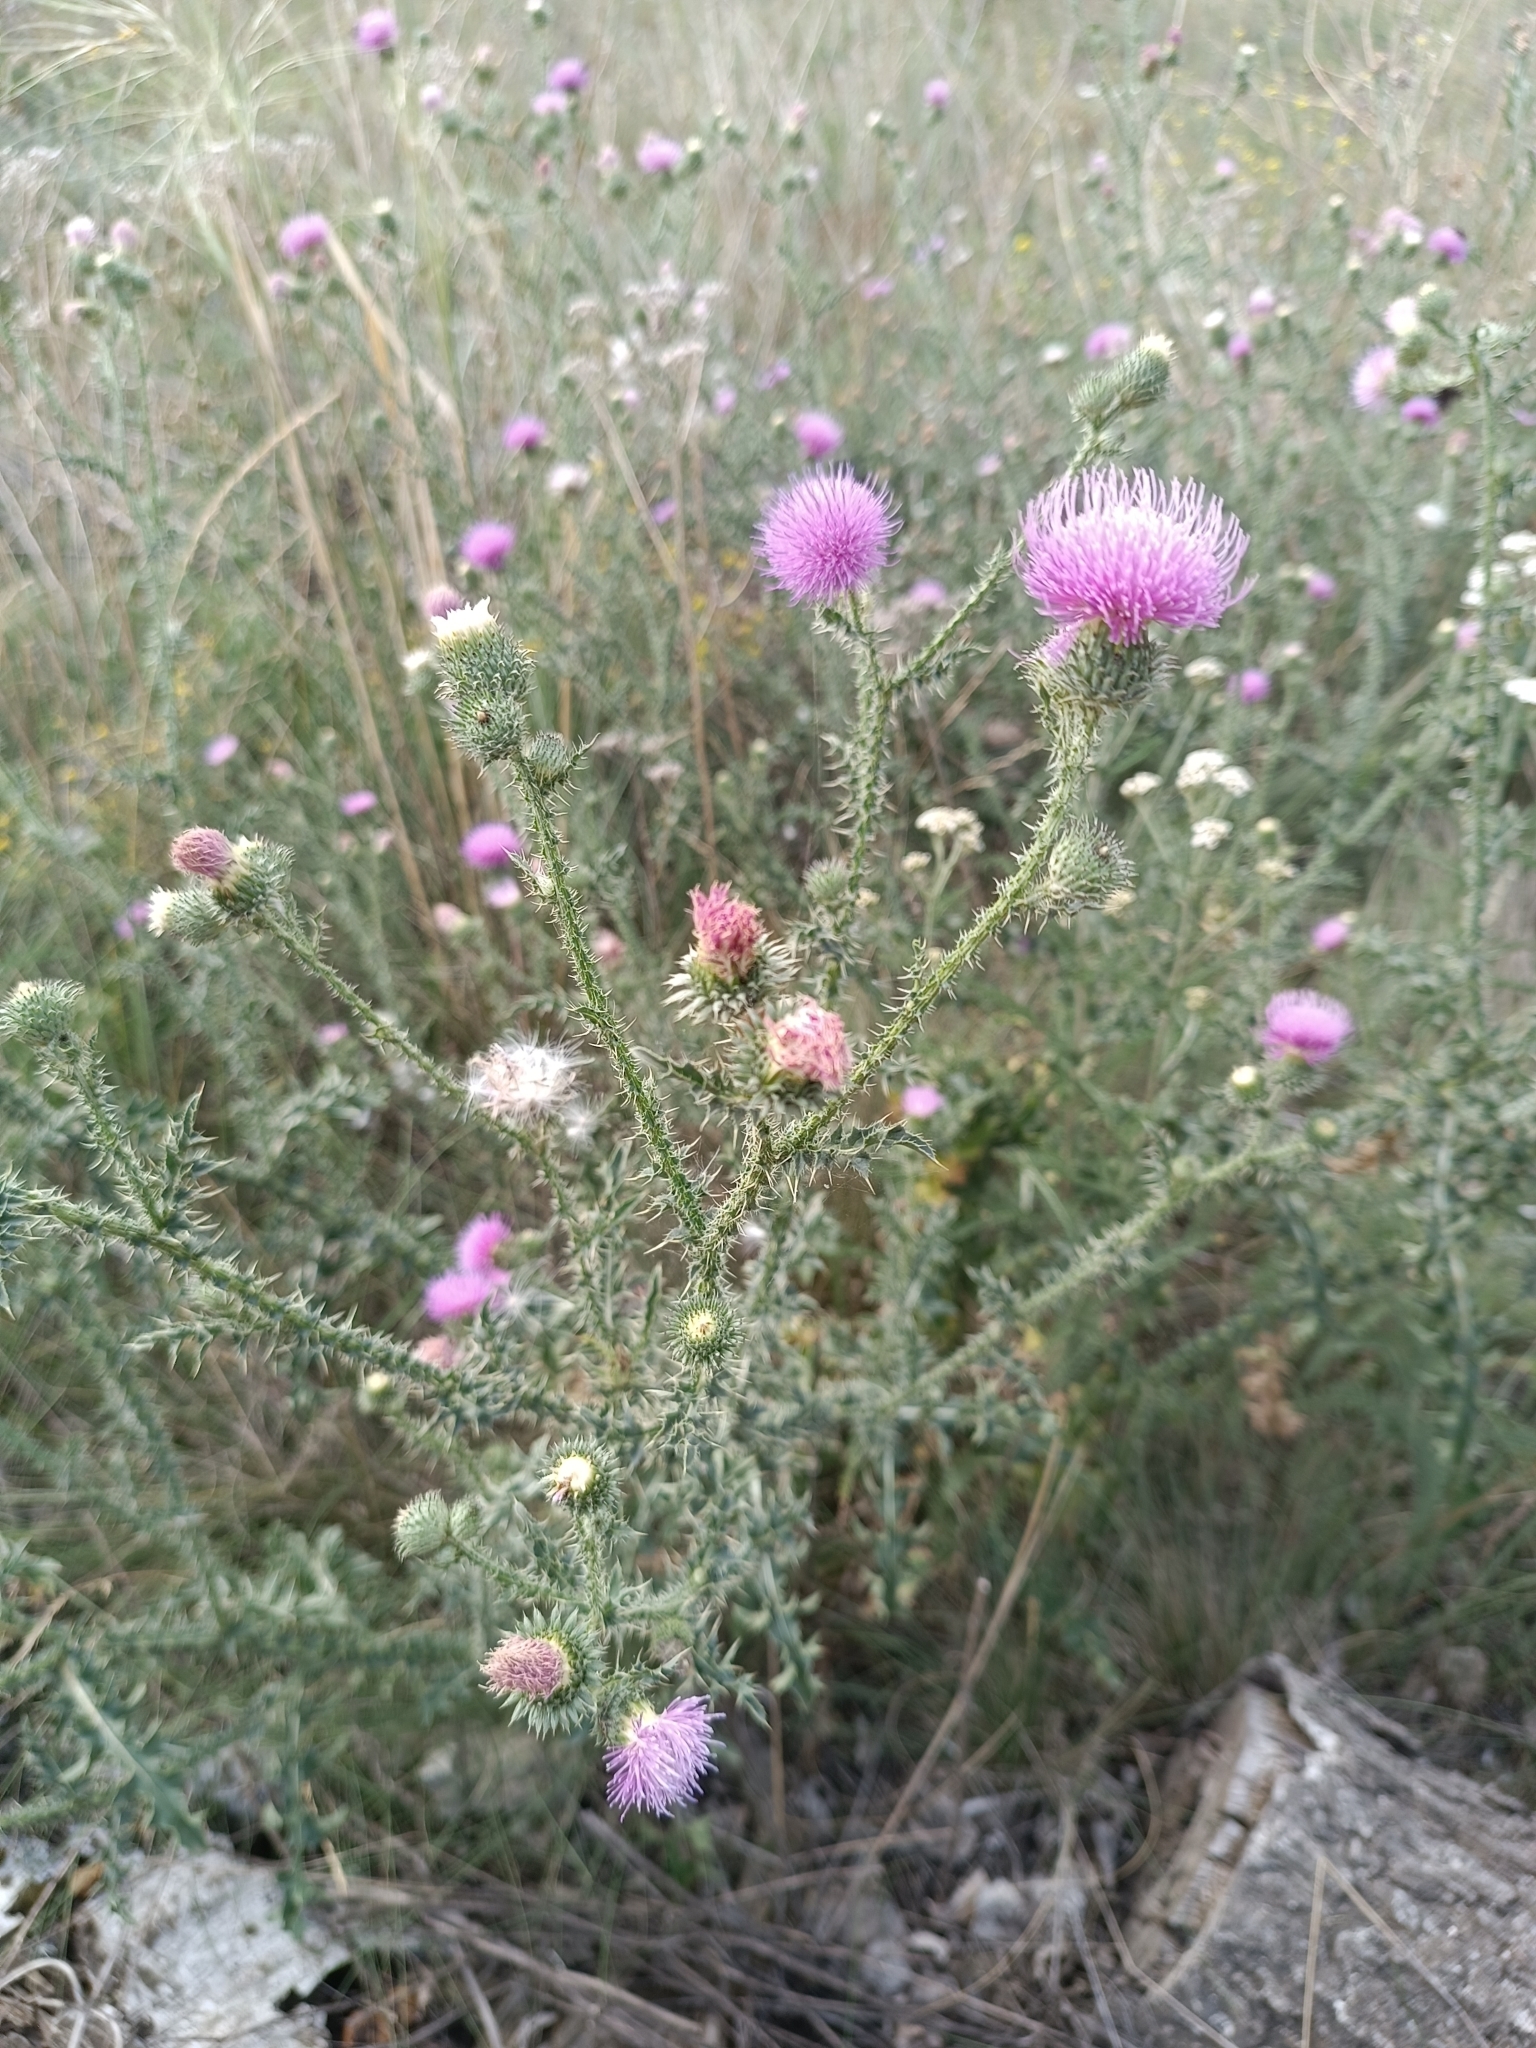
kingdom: Plantae
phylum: Tracheophyta
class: Magnoliopsida
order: Asterales
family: Asteraceae
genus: Carduus
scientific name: Carduus acanthoides
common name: Plumeless thistle
